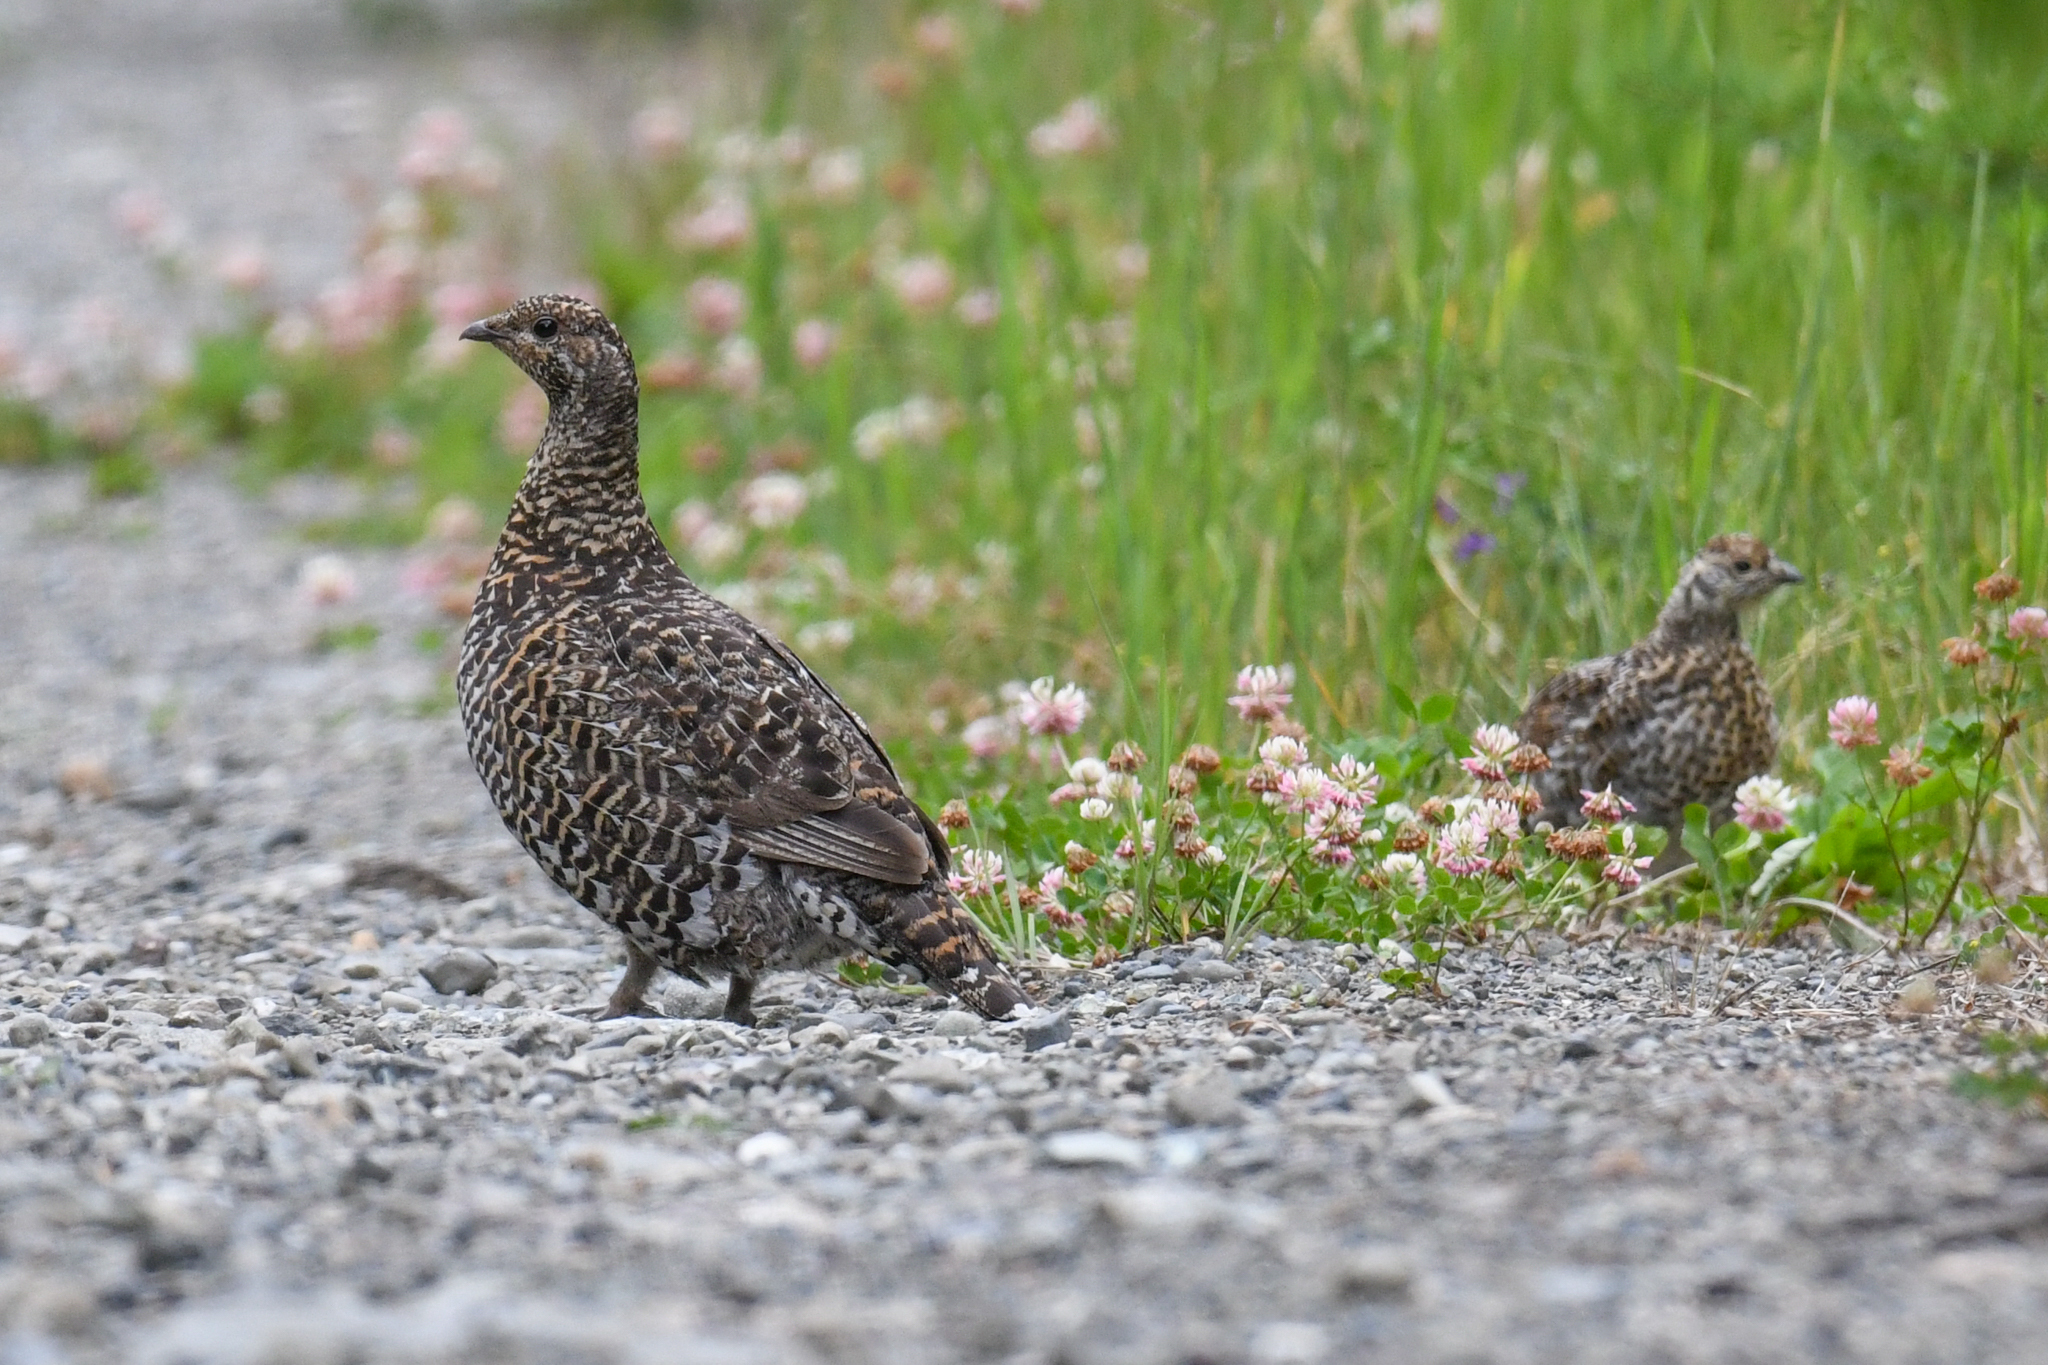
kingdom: Animalia
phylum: Chordata
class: Aves
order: Galliformes
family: Phasianidae
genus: Canachites
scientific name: Canachites canadensis
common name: Spruce grouse
